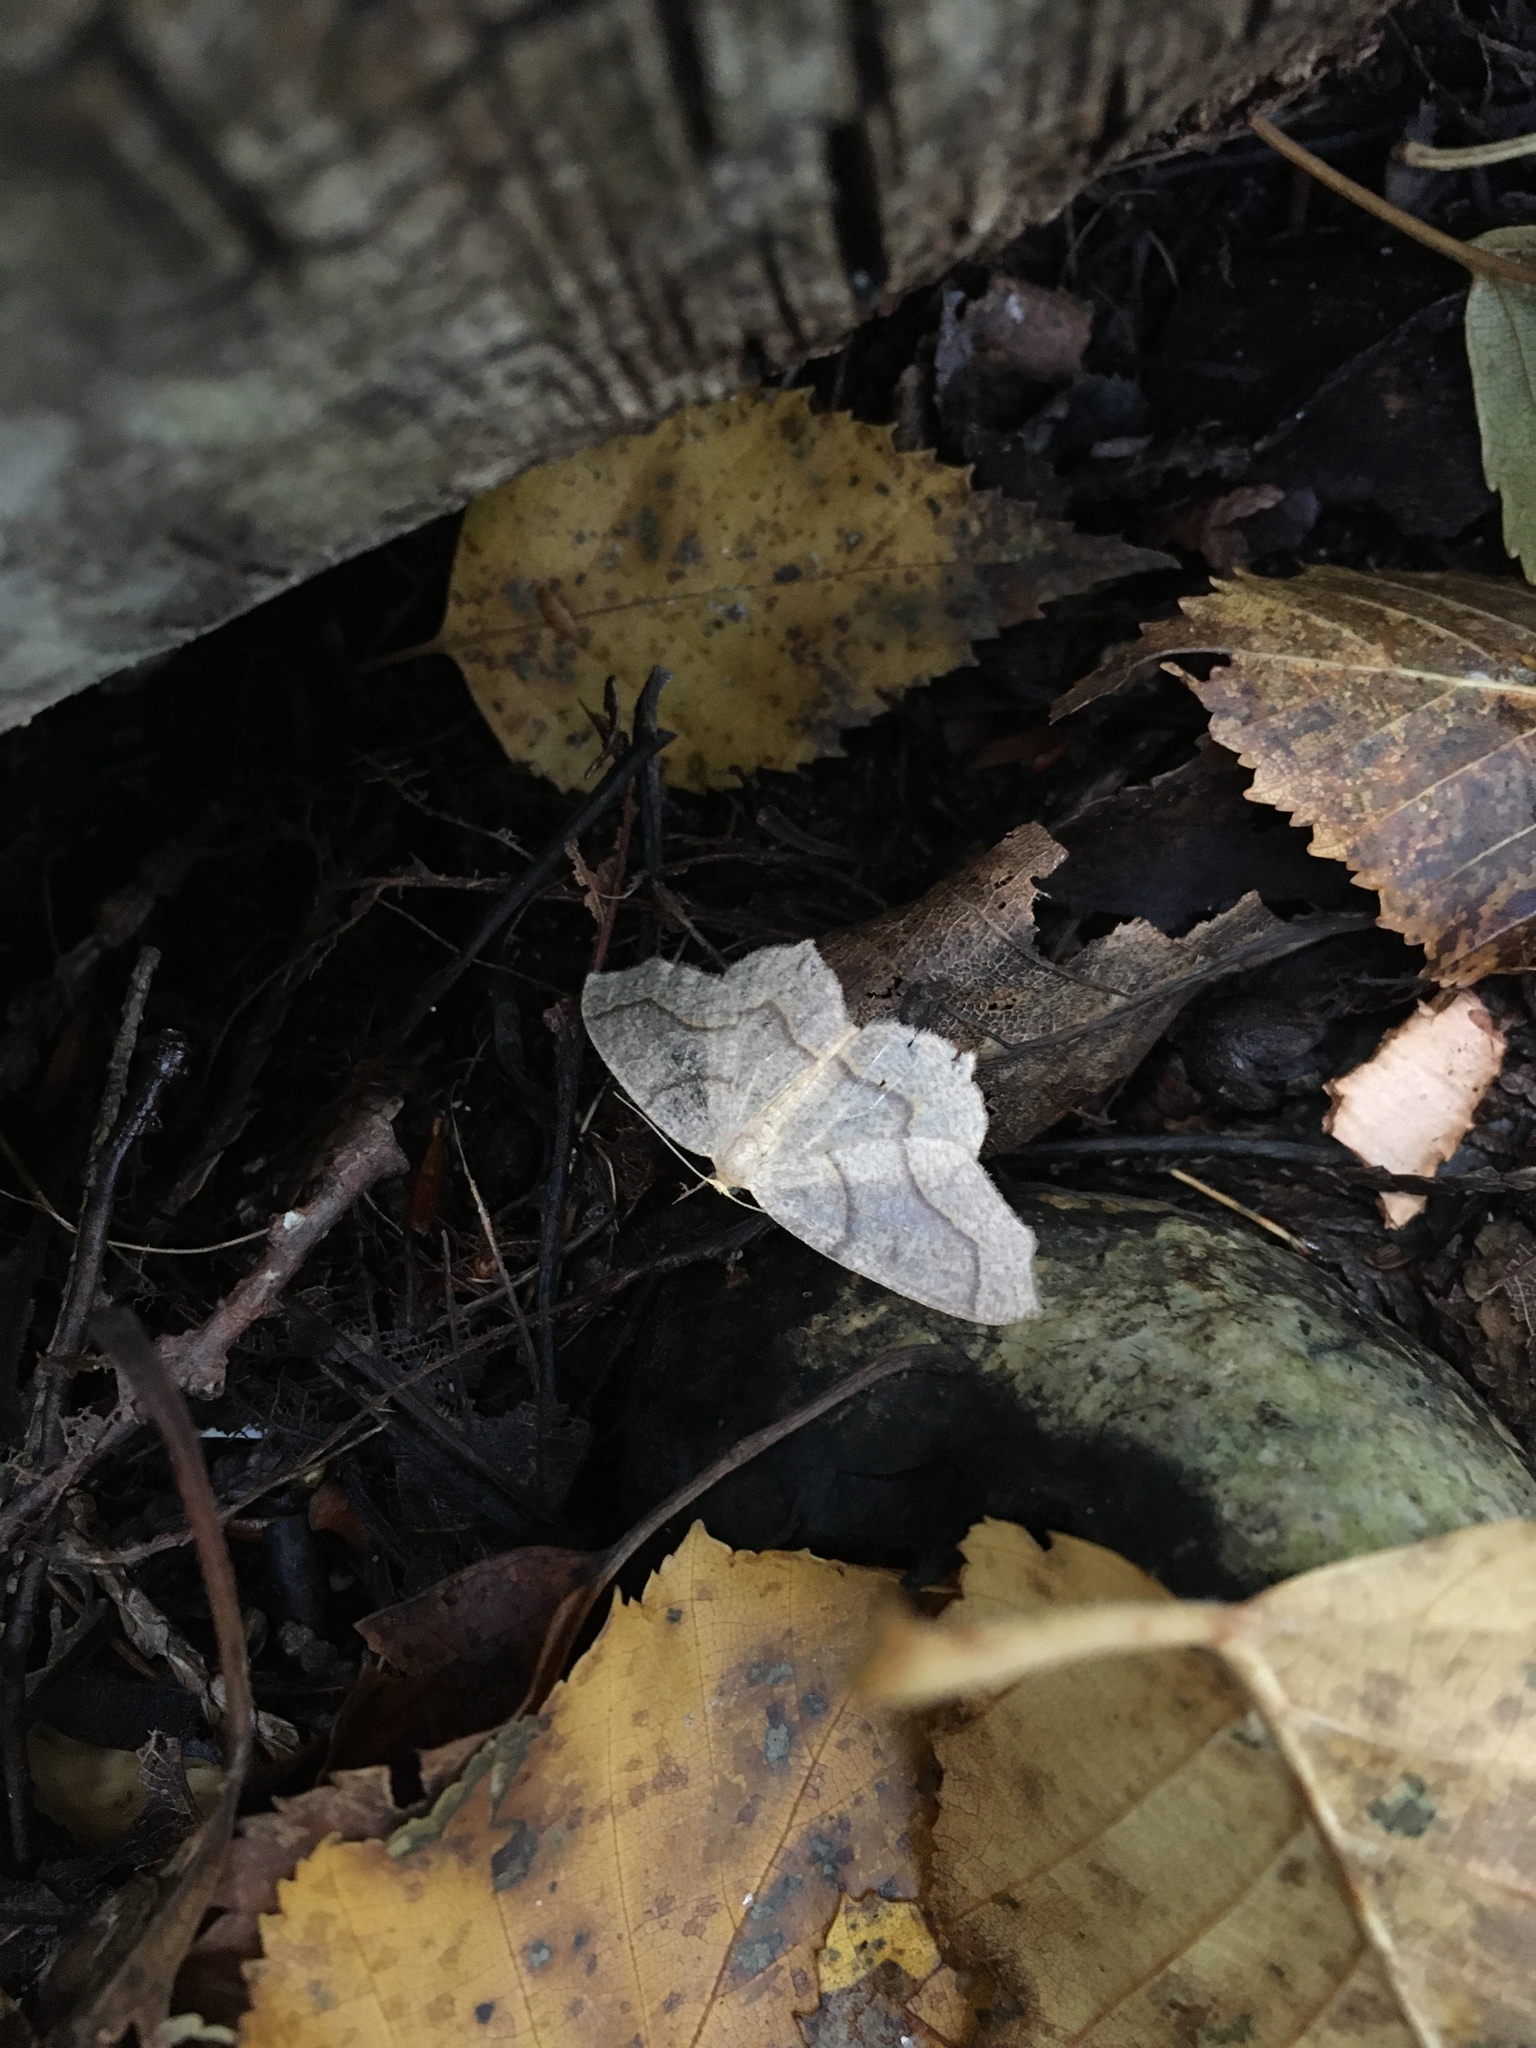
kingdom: Animalia
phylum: Arthropoda
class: Insecta
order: Lepidoptera
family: Geometridae
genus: Lambdina
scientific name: Lambdina fiscellaria
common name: Hemlock looper
